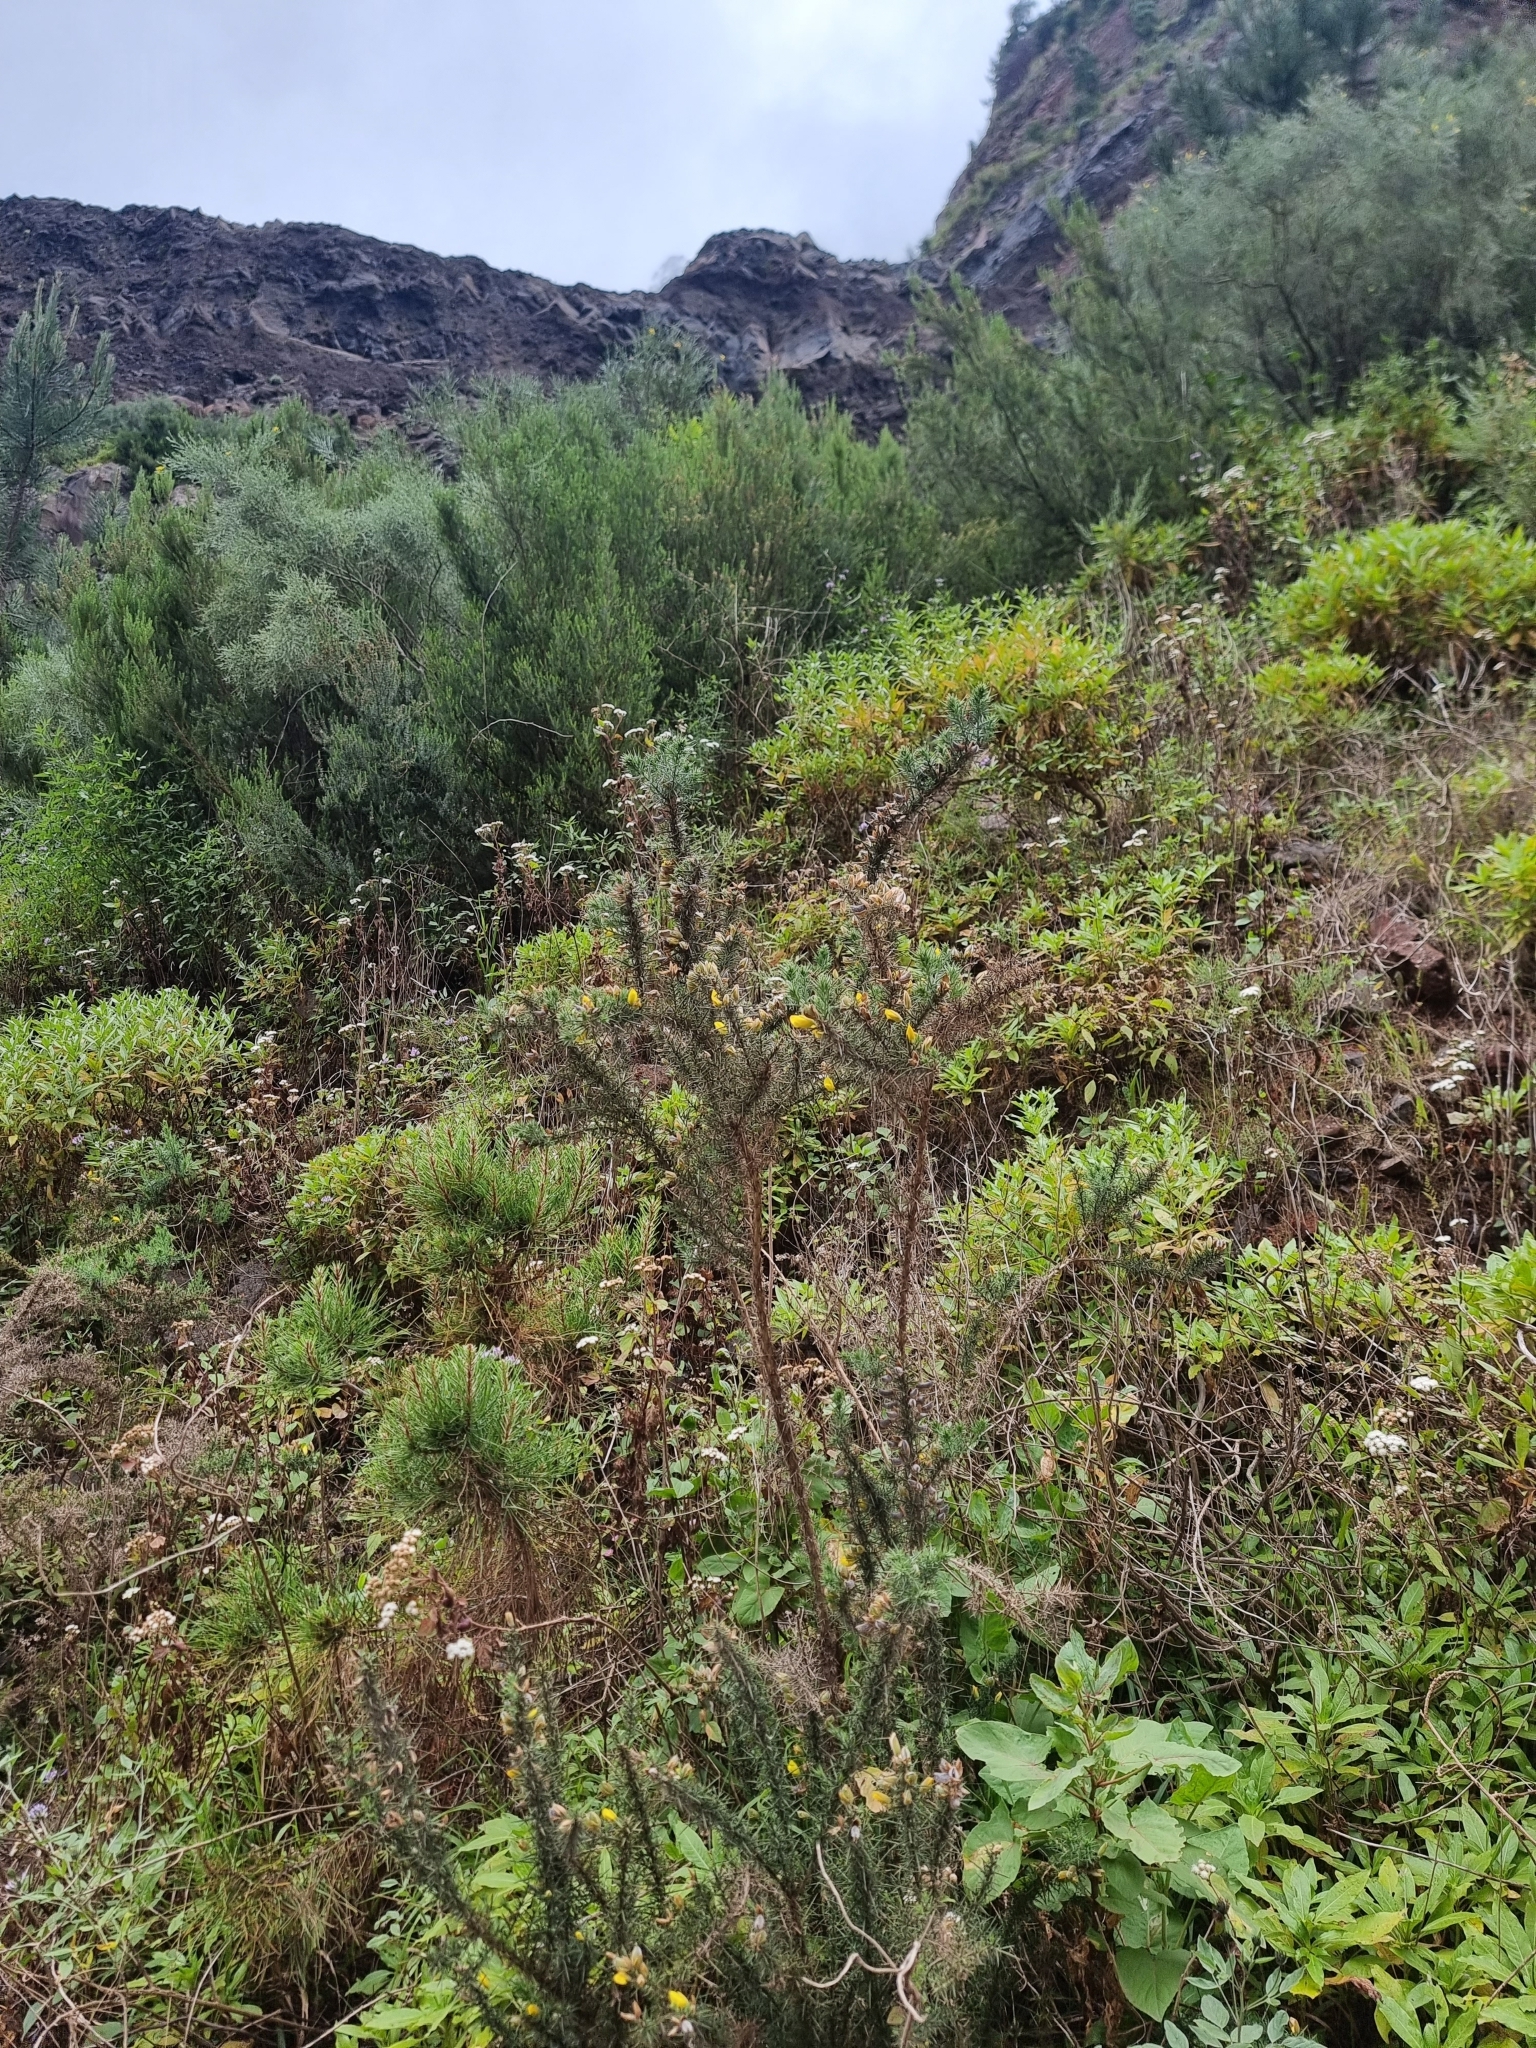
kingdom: Plantae
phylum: Tracheophyta
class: Magnoliopsida
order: Fabales
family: Fabaceae
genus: Ulex
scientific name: Ulex europaeus
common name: Common gorse
